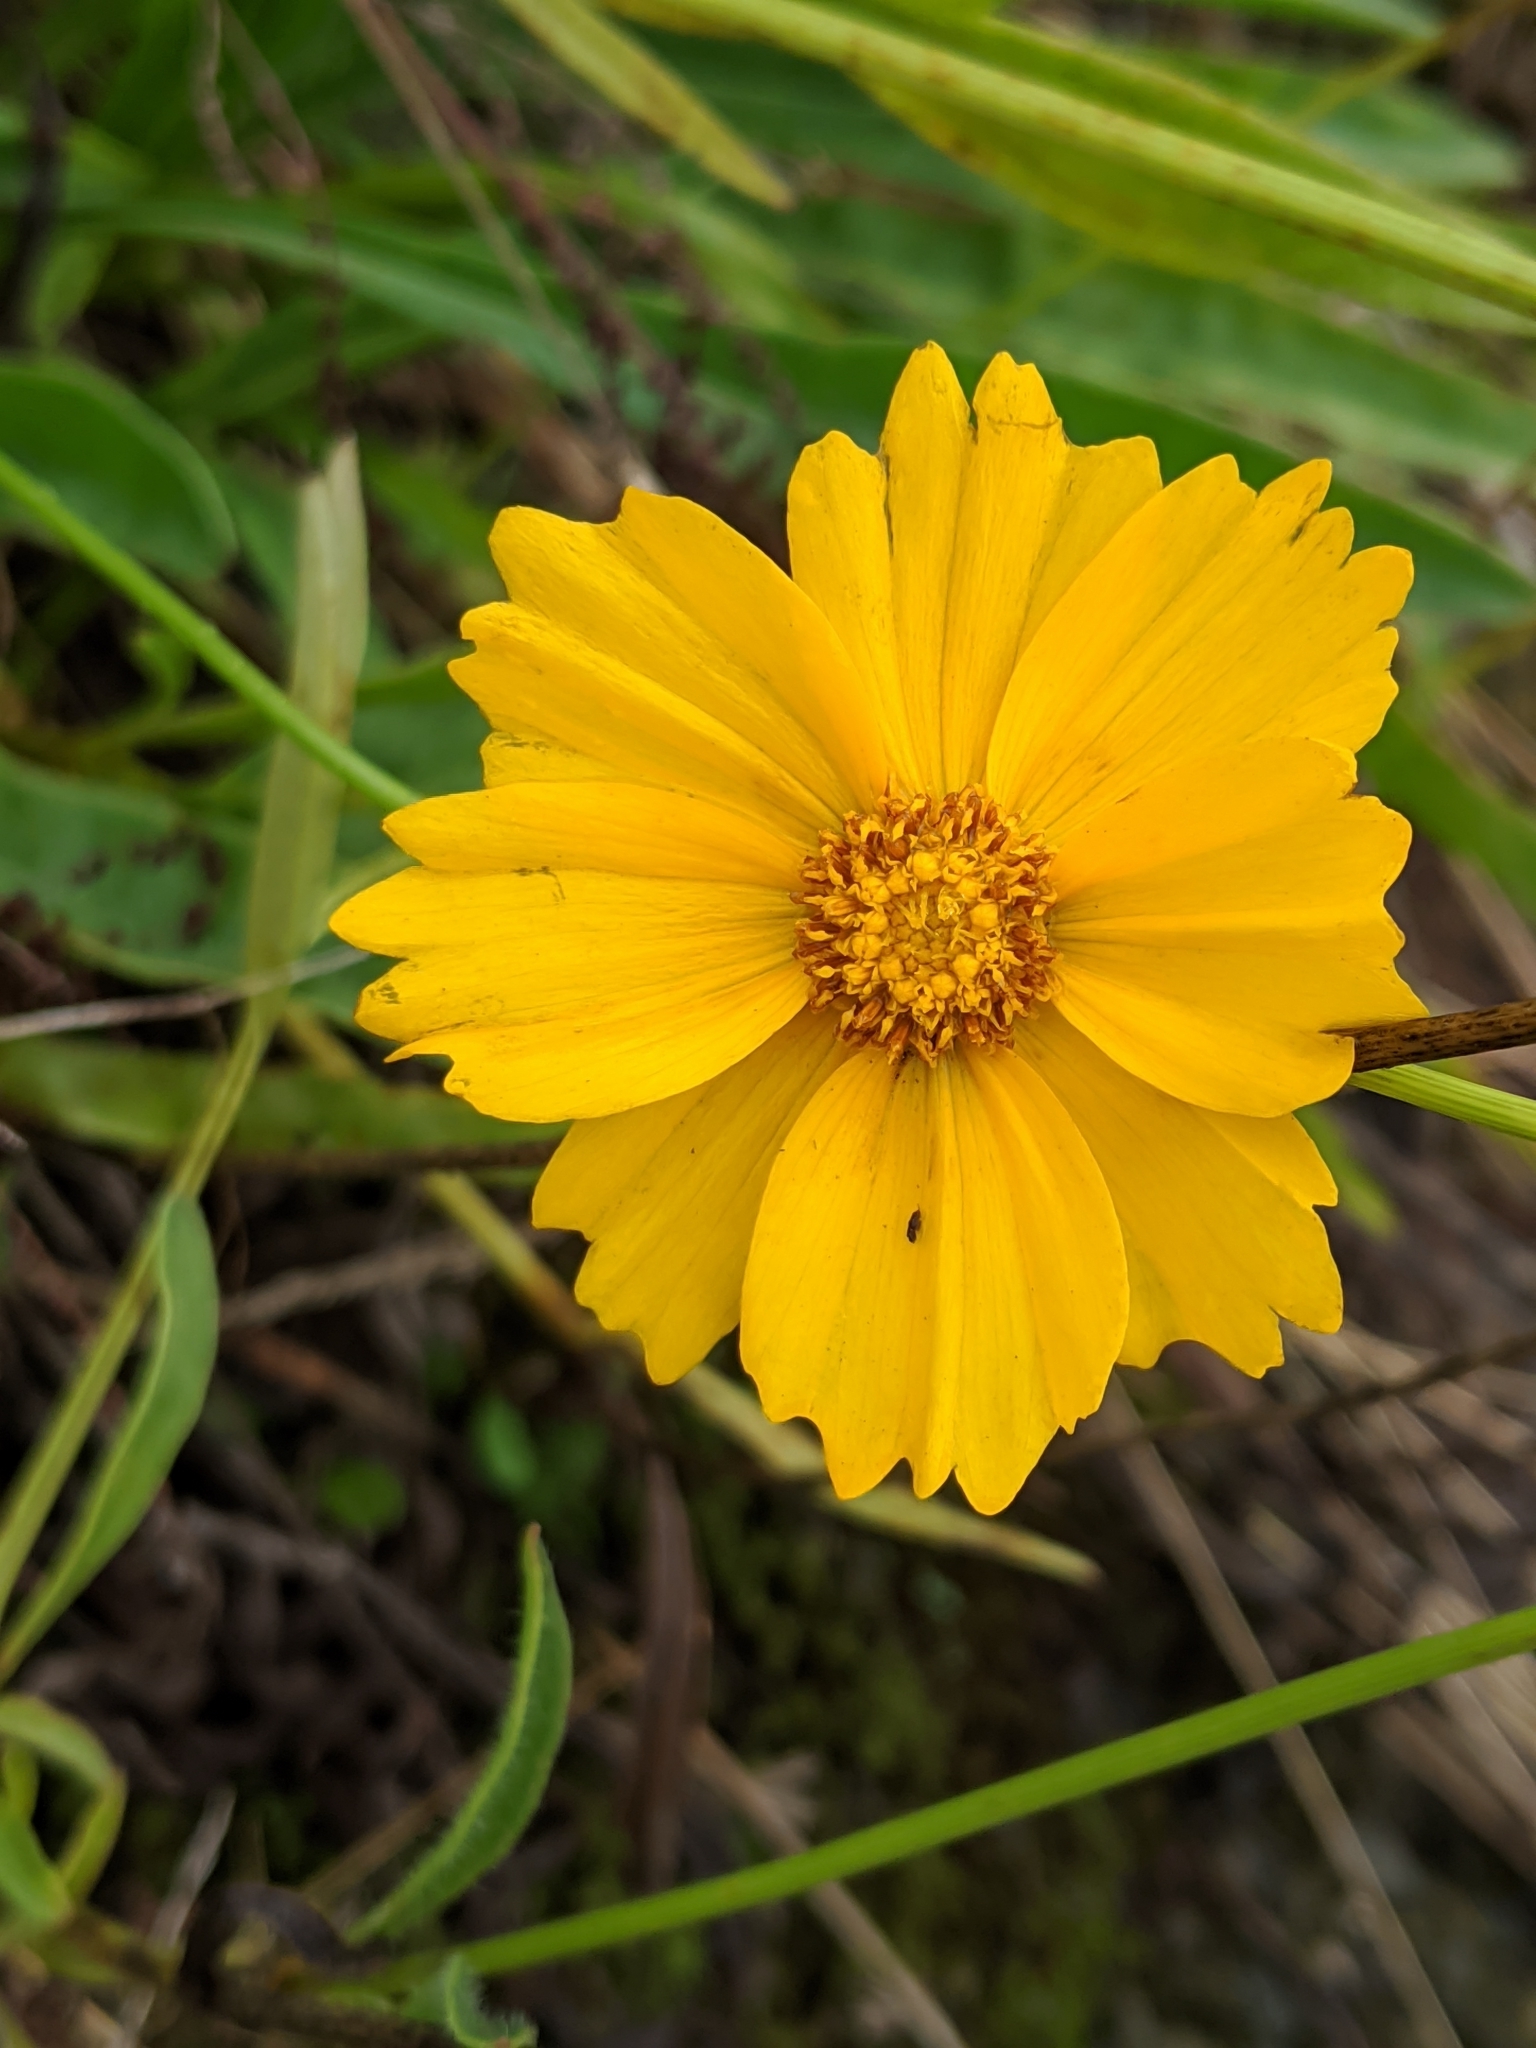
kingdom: Plantae
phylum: Tracheophyta
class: Magnoliopsida
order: Asterales
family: Asteraceae
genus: Coreopsis
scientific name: Coreopsis lanceolata
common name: Garden coreopsis
